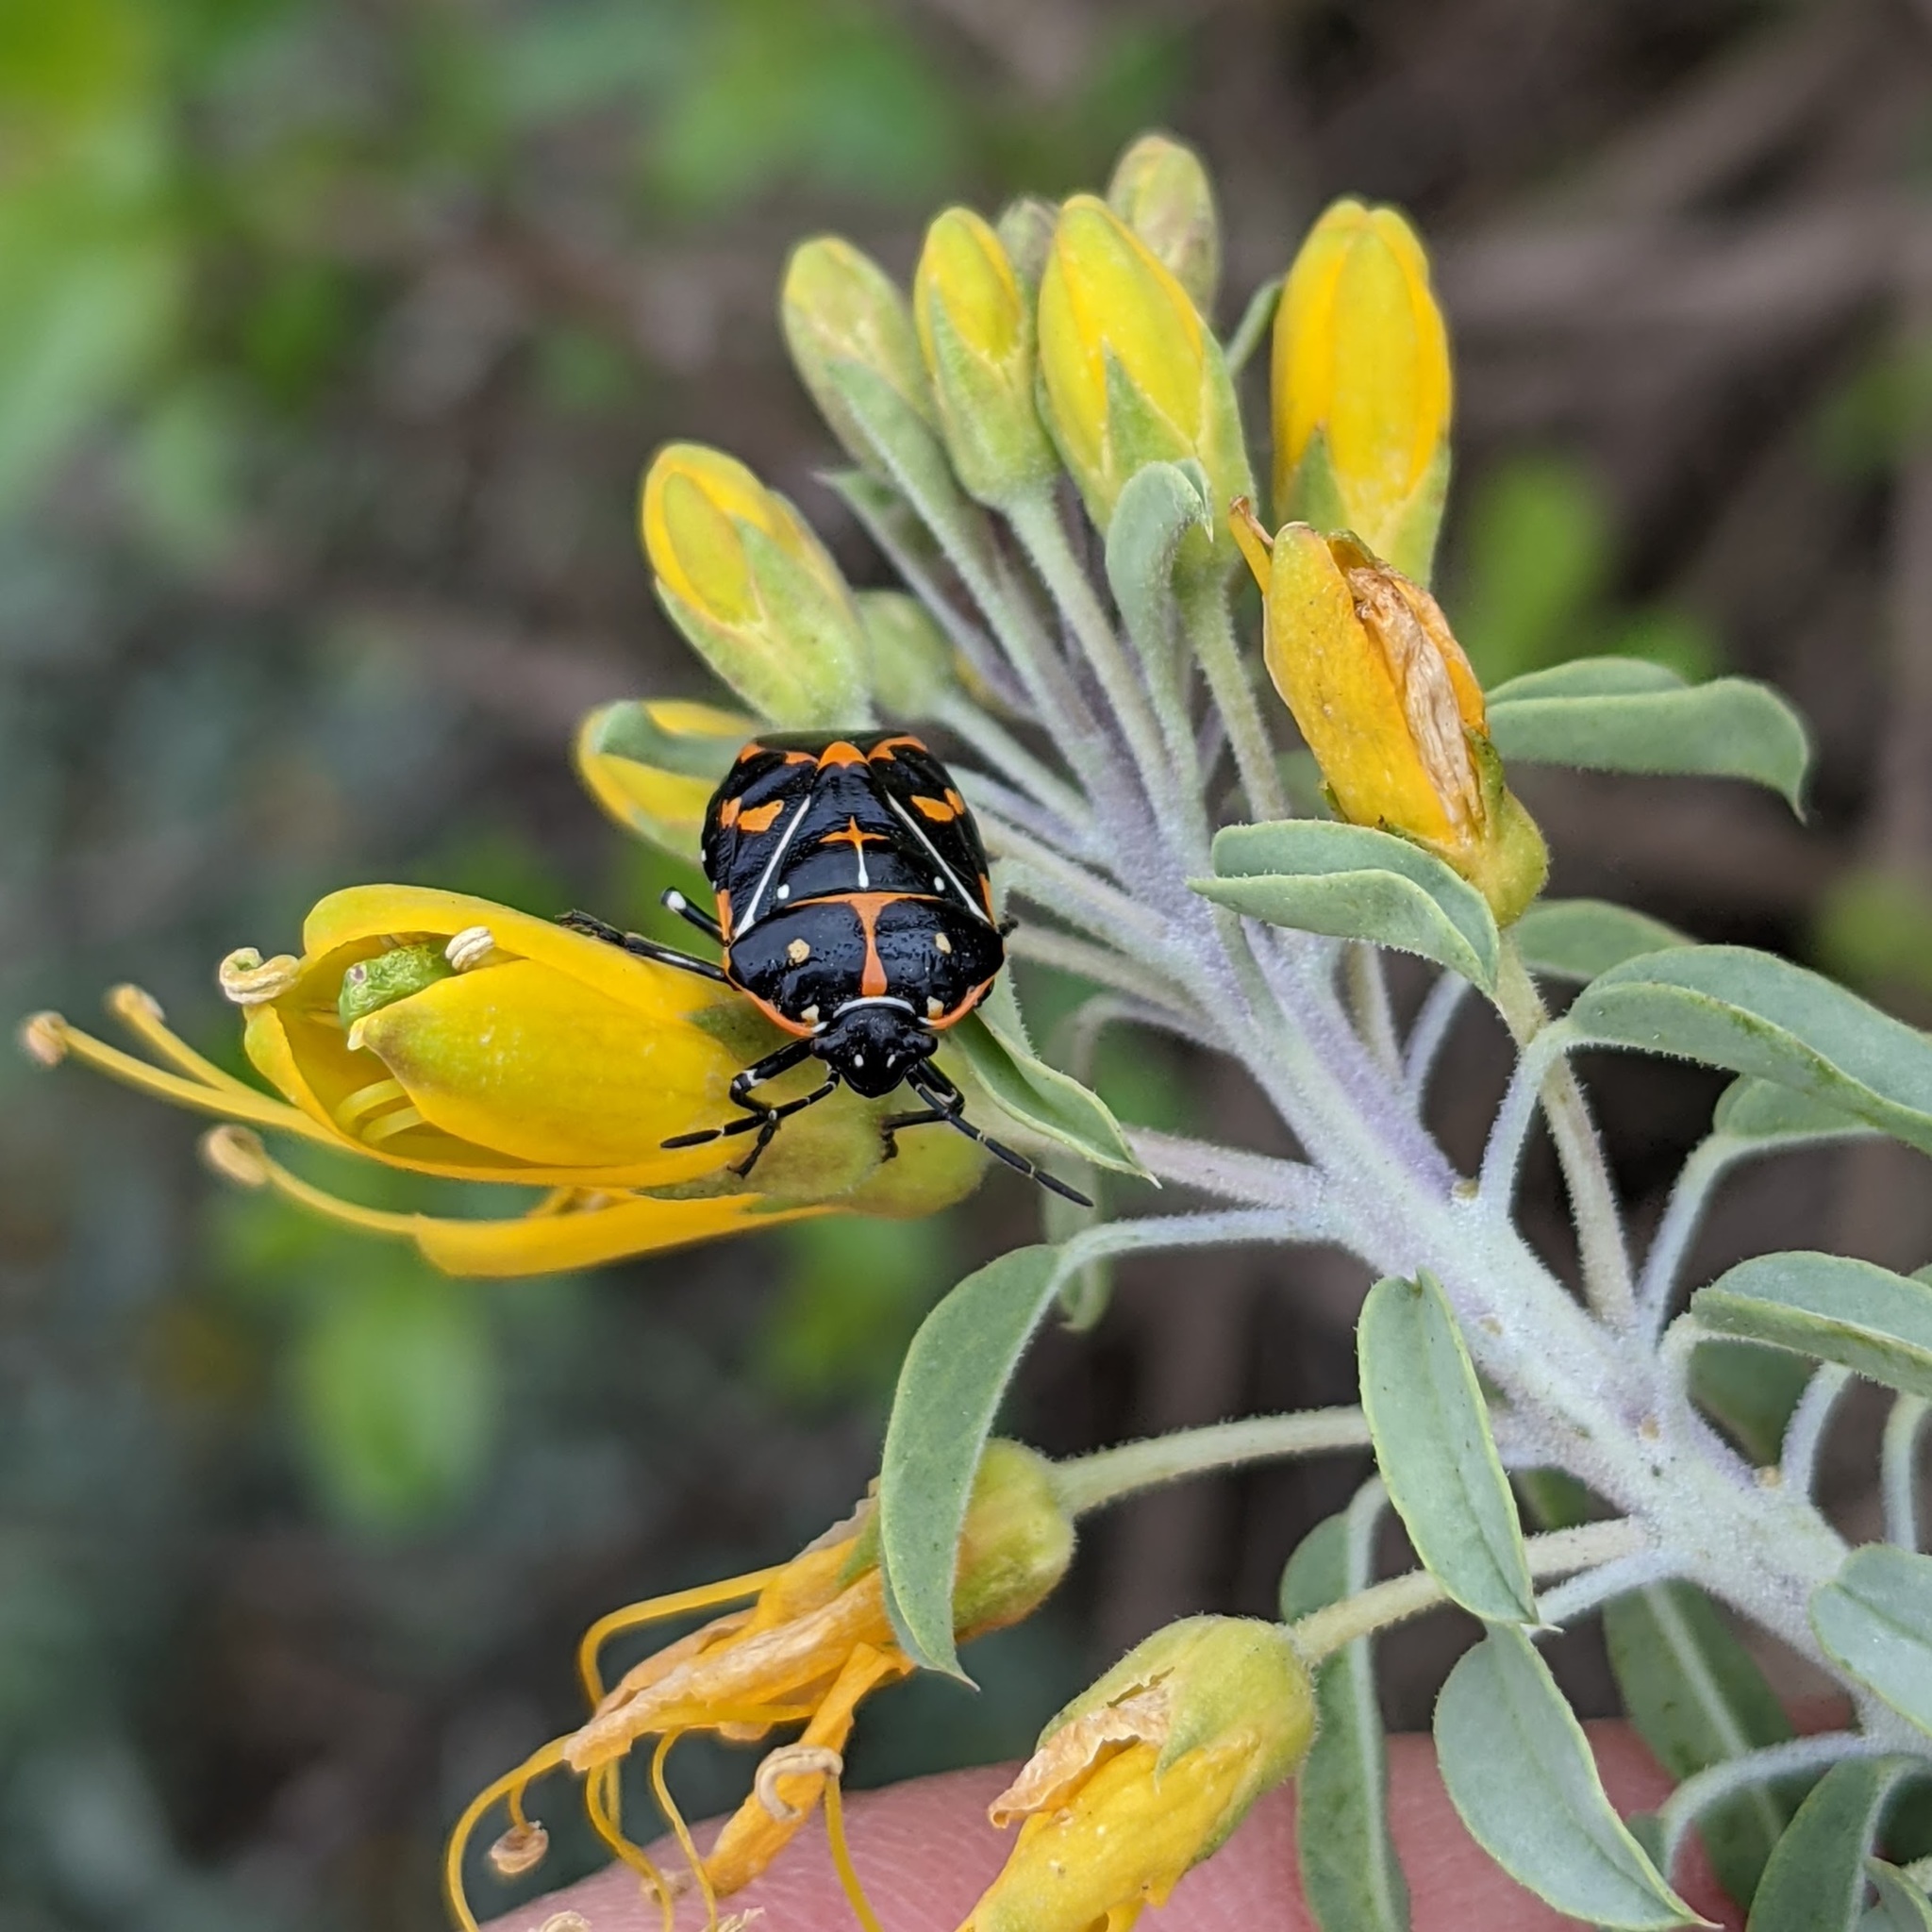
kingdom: Animalia
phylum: Arthropoda
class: Insecta
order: Hemiptera
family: Pentatomidae
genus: Murgantia
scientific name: Murgantia histrionica
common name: Harlequin bug
